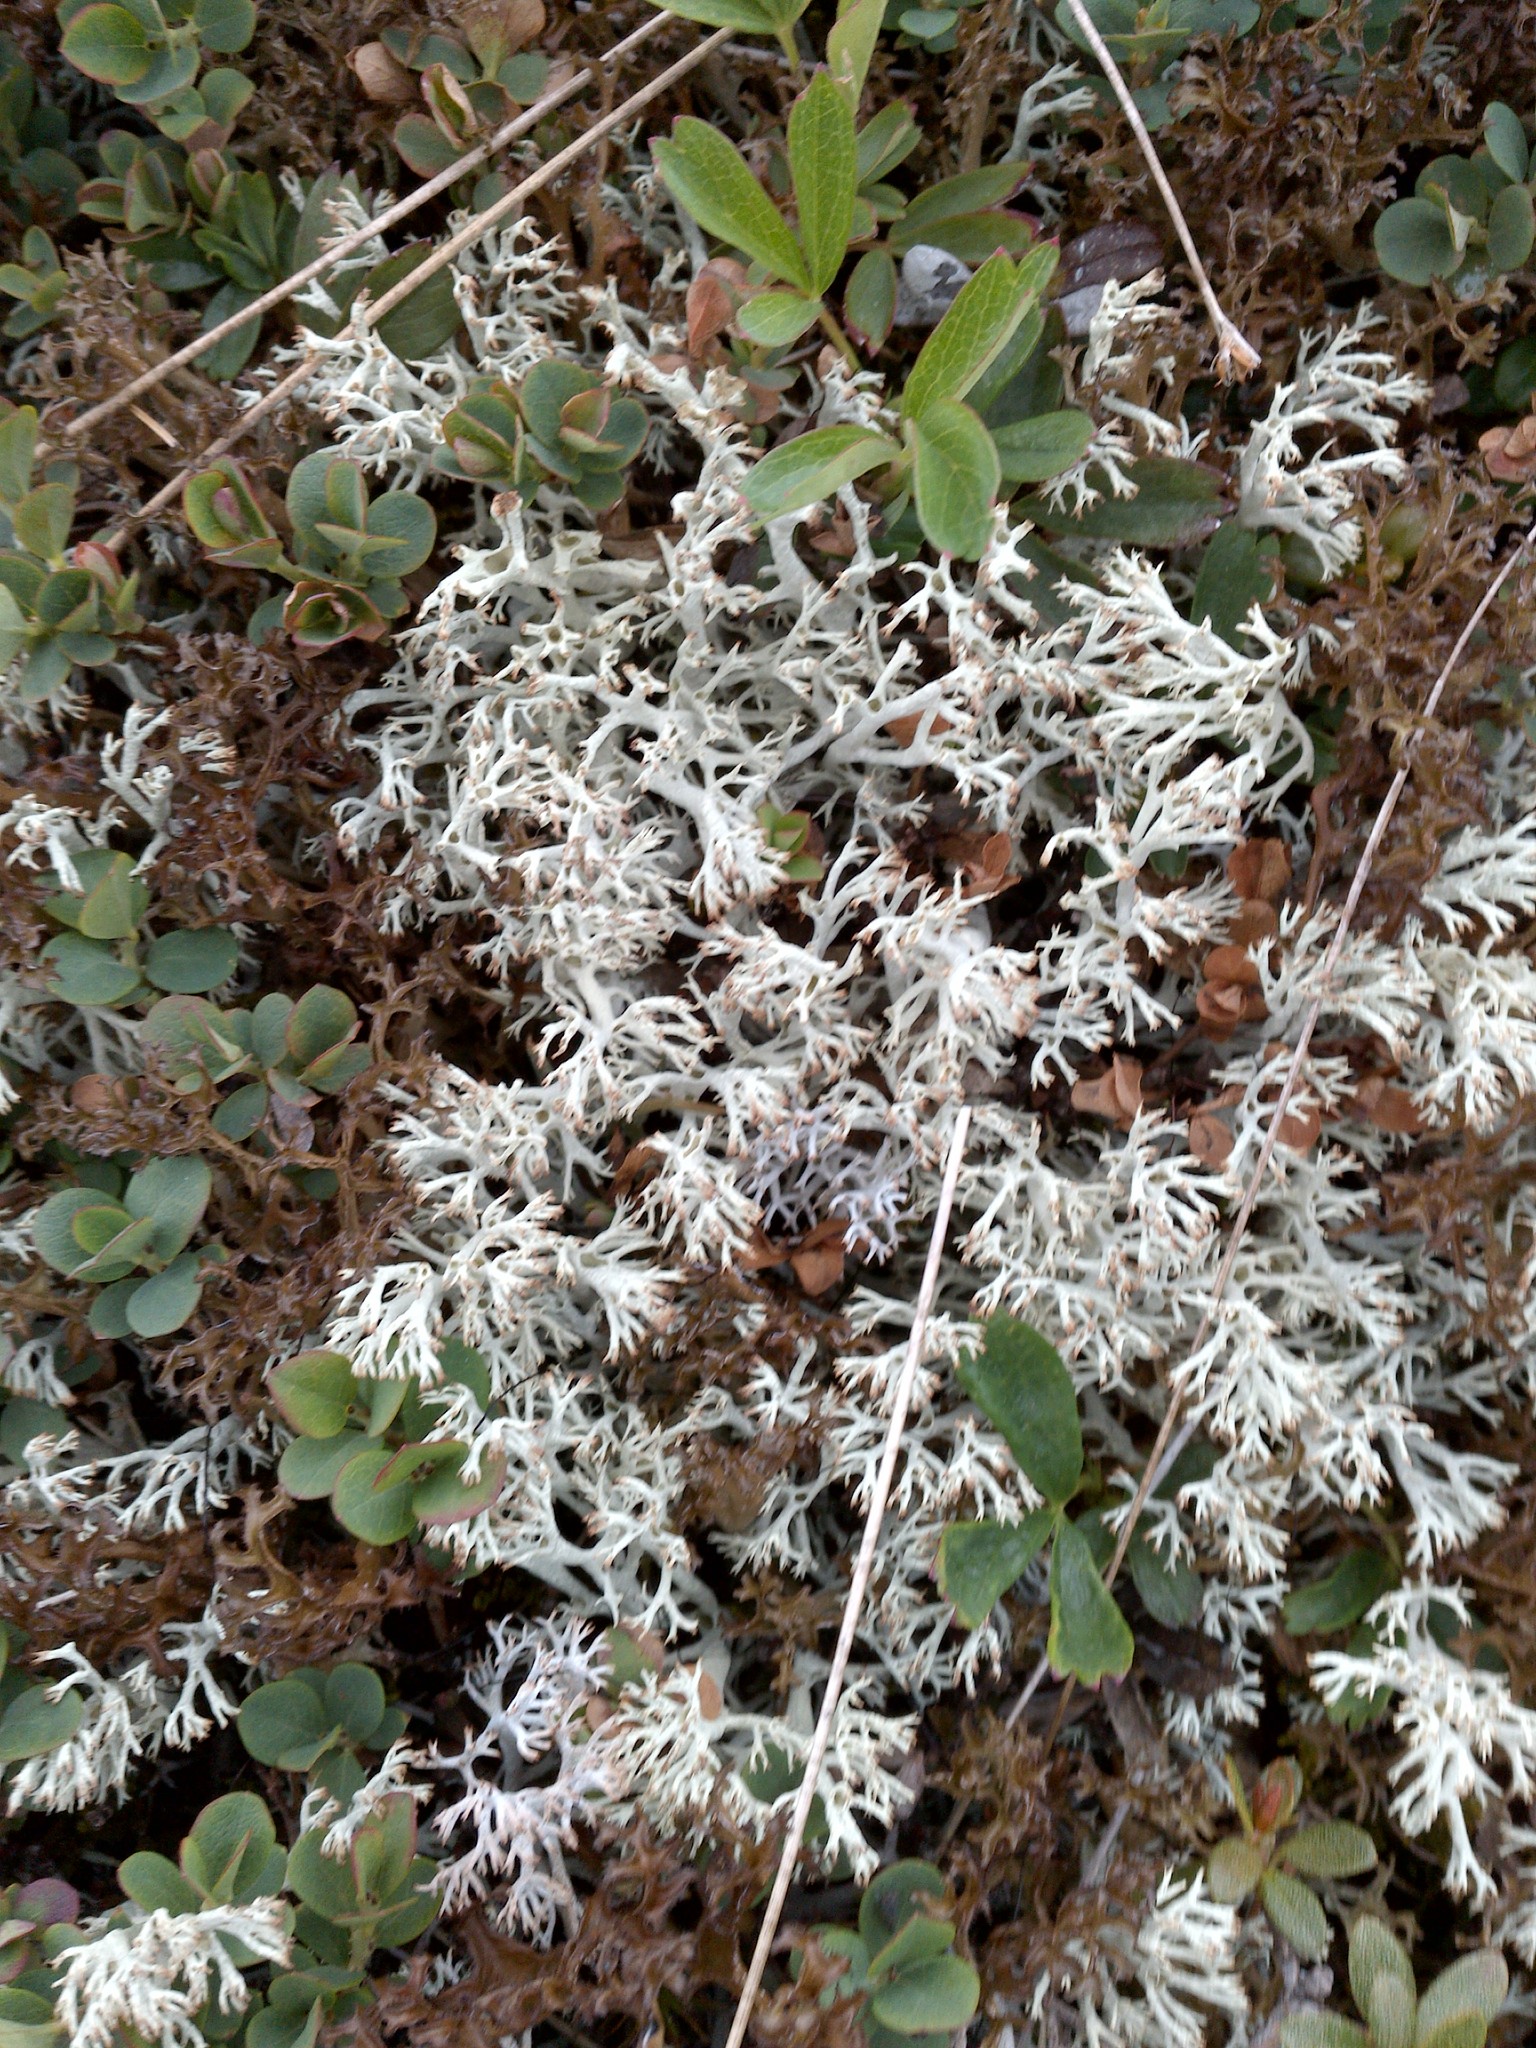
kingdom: Fungi
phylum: Ascomycota
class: Lecanoromycetes
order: Lecanorales
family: Cladoniaceae
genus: Cladonia
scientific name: Cladonia rangiferina
